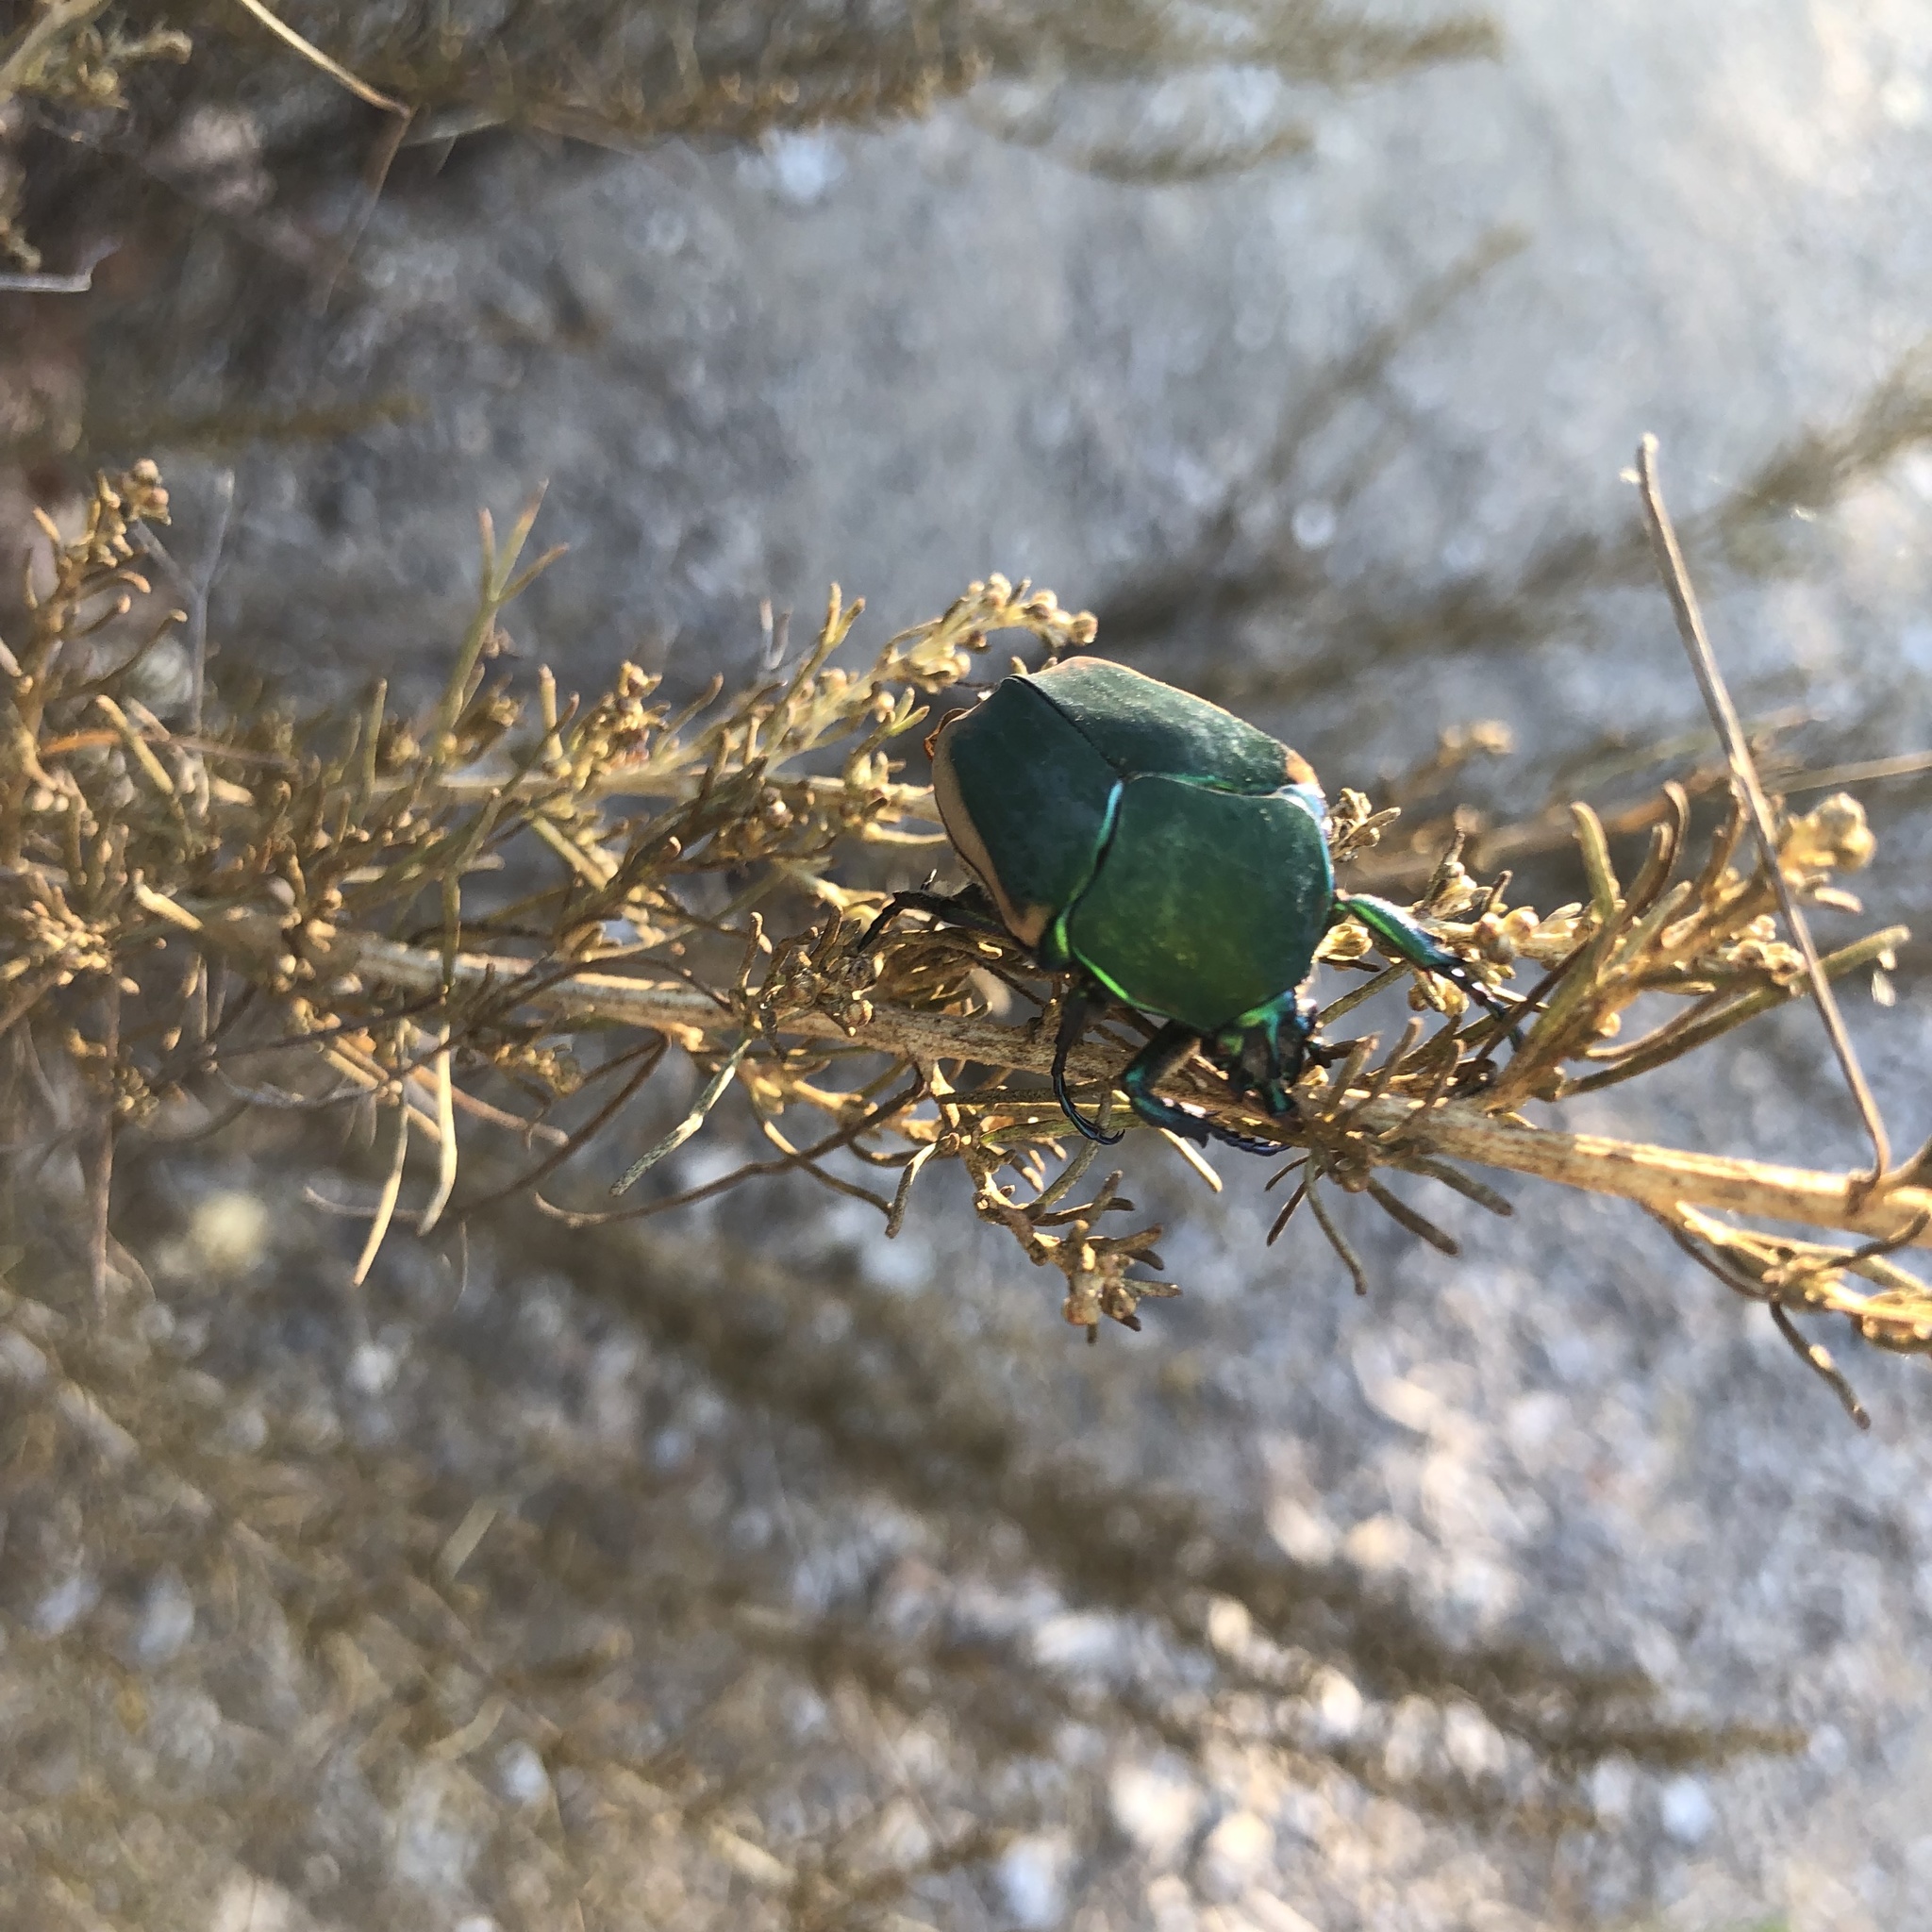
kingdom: Animalia
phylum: Arthropoda
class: Insecta
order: Coleoptera
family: Scarabaeidae
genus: Cotinis
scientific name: Cotinis mutabilis
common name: Figeater beetle
